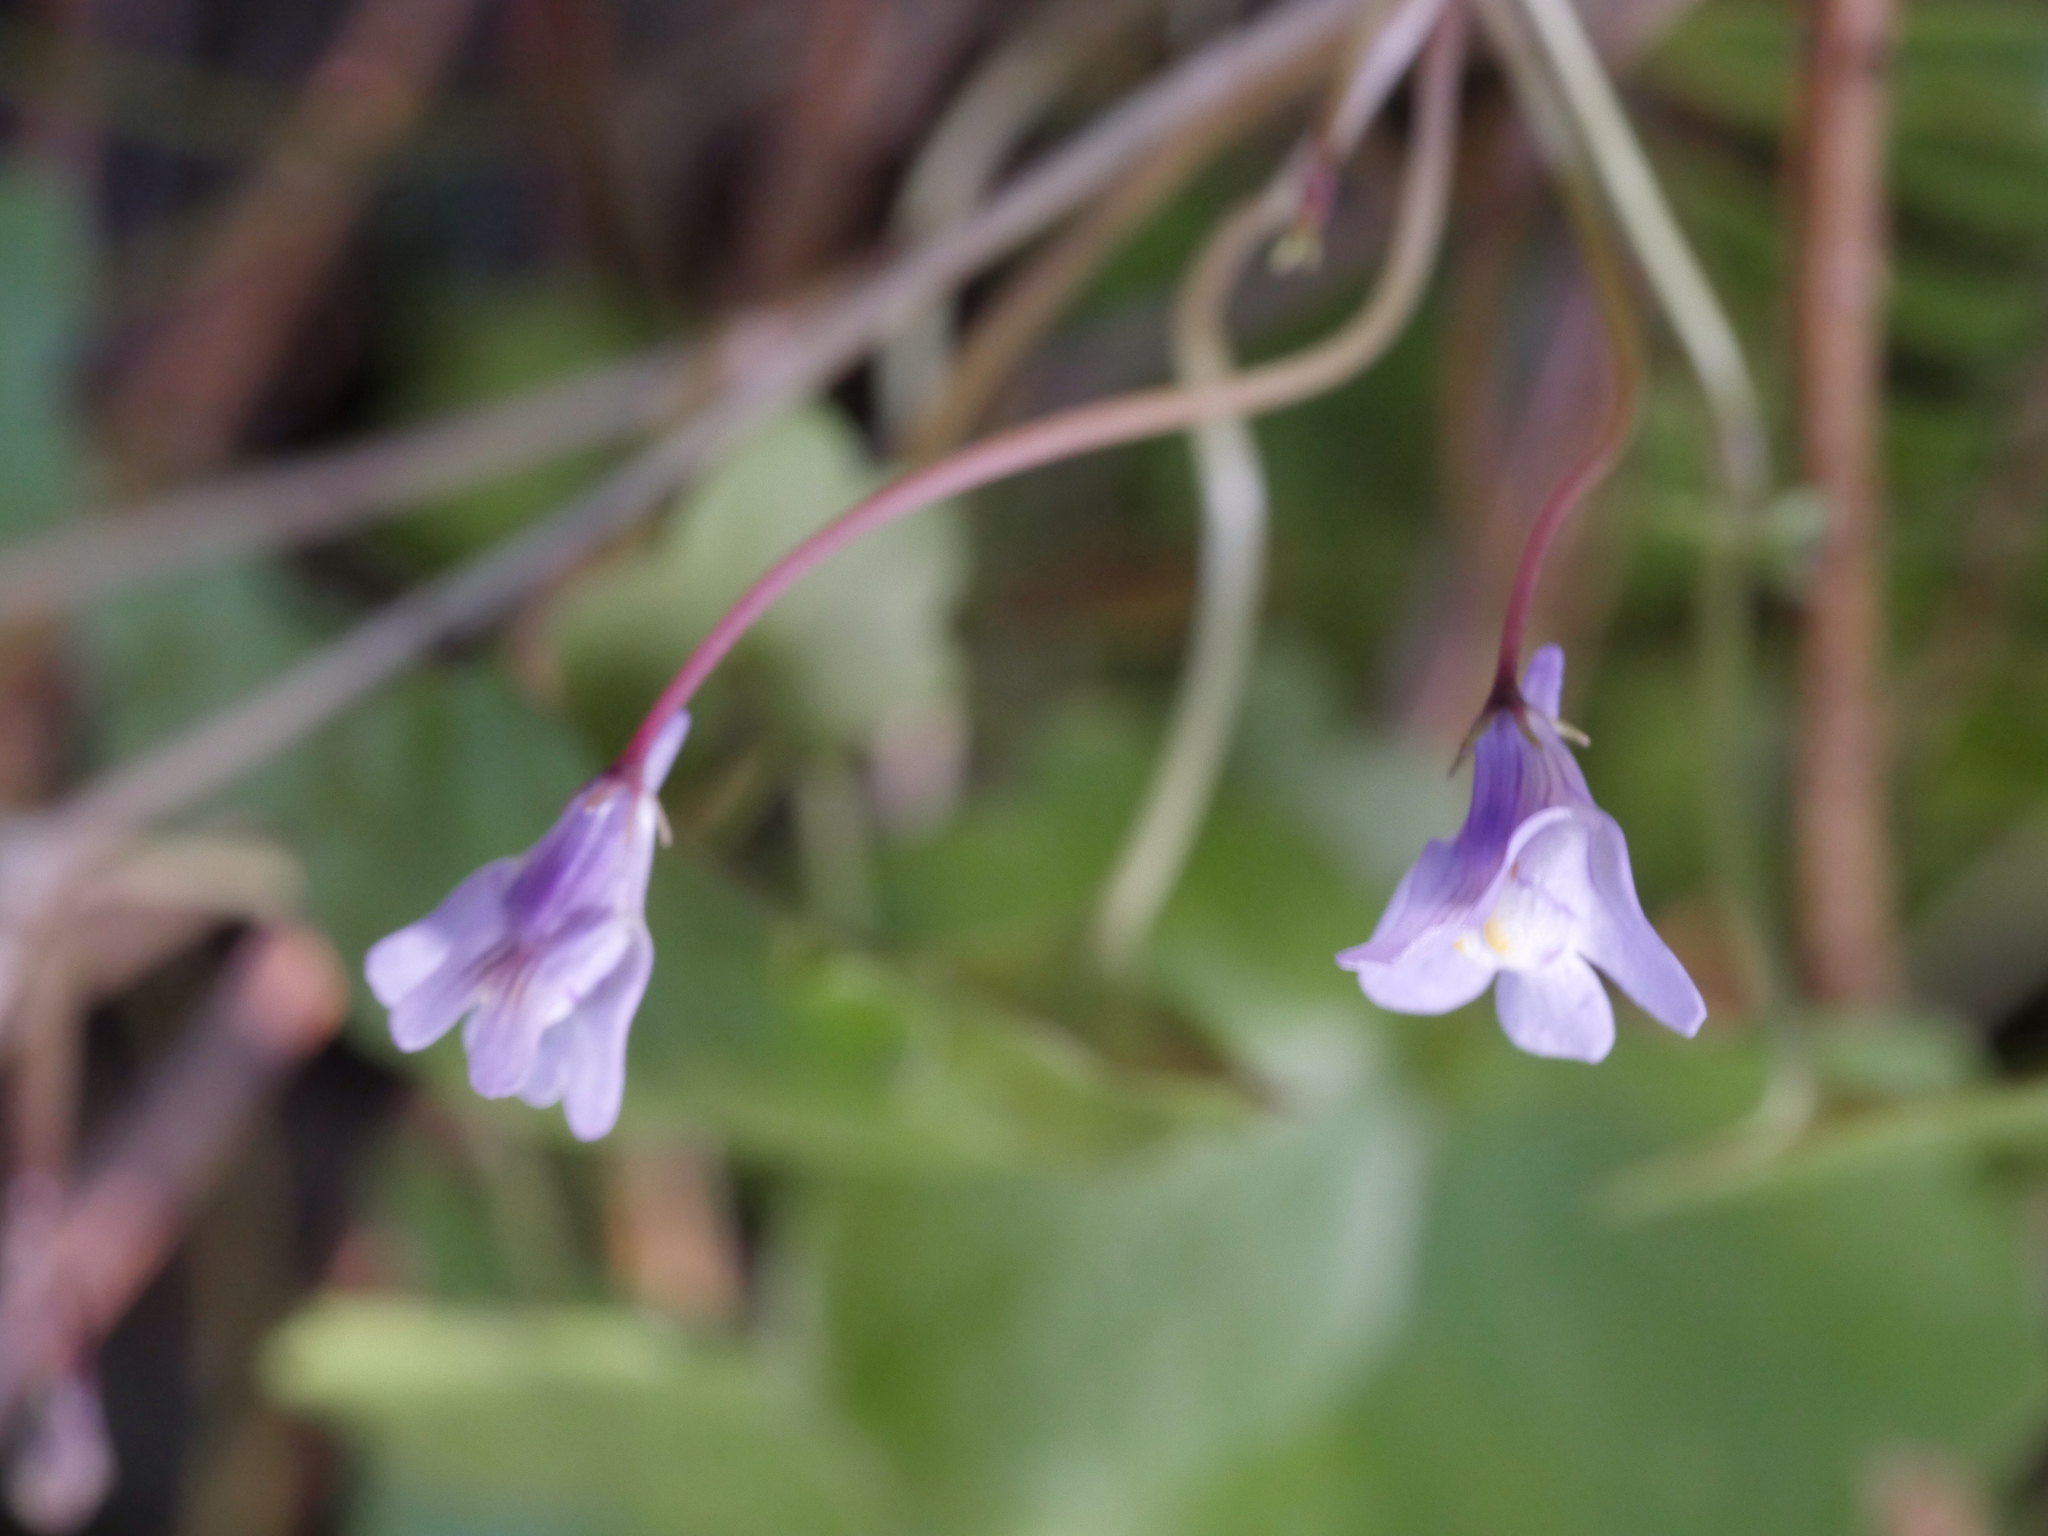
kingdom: Plantae
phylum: Tracheophyta
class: Magnoliopsida
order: Lamiales
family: Plantaginaceae
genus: Cymbalaria
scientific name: Cymbalaria muralis
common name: Ivy-leaved toadflax
